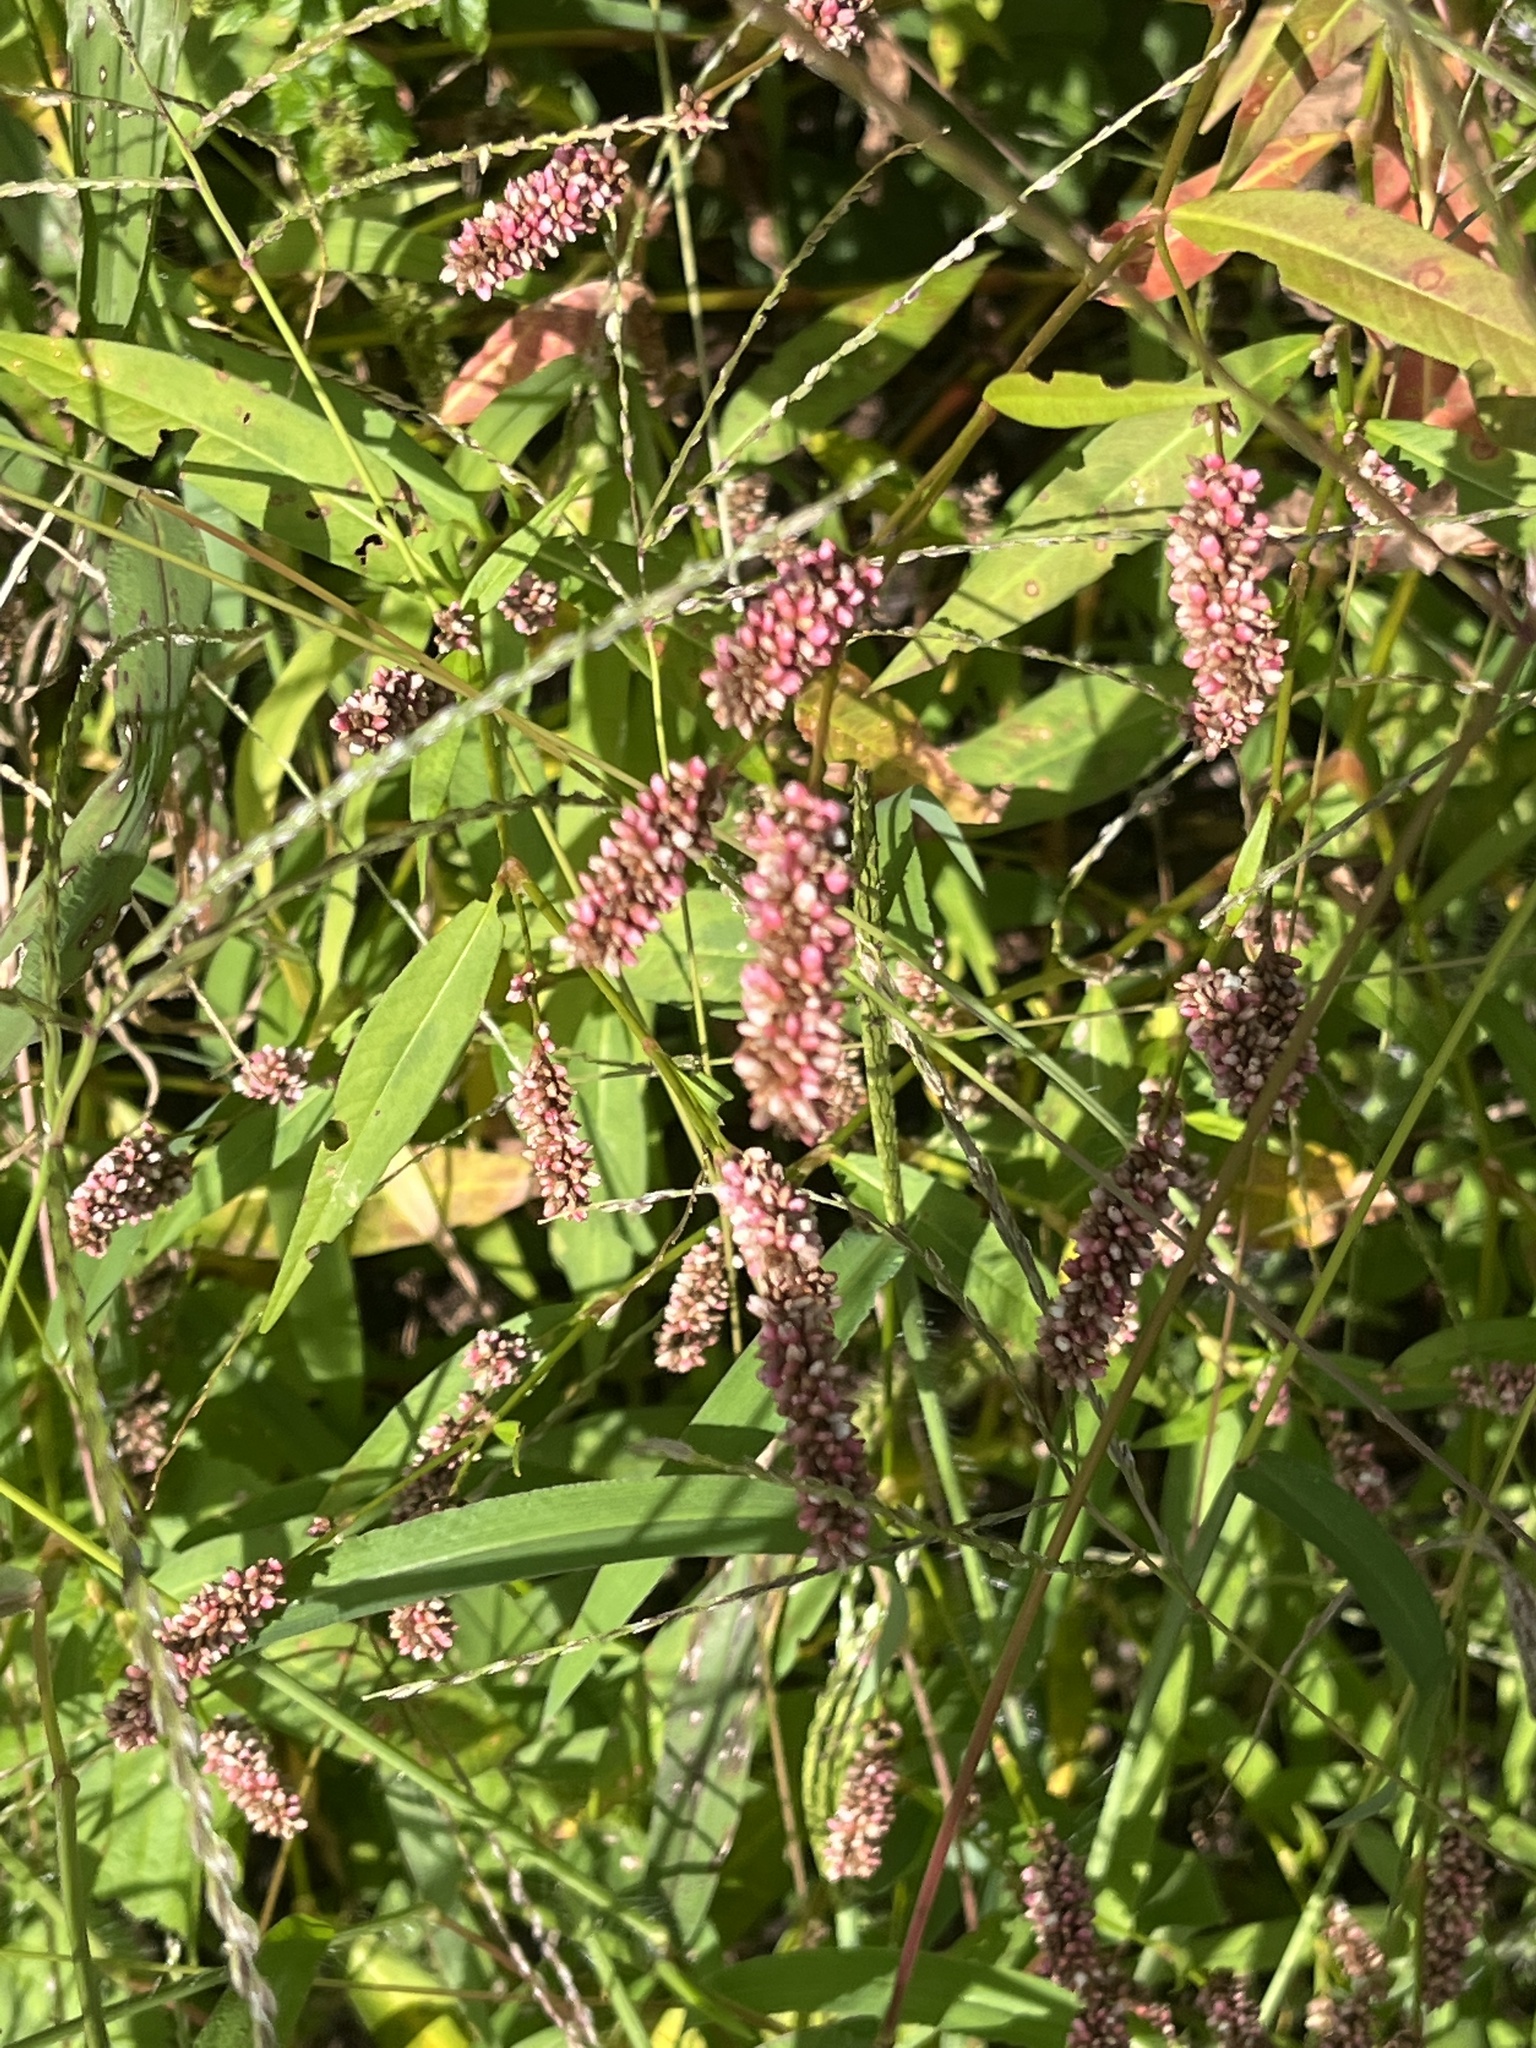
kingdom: Plantae
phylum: Tracheophyta
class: Magnoliopsida
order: Caryophyllales
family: Polygonaceae
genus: Persicaria
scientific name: Persicaria maculosa
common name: Redshank
